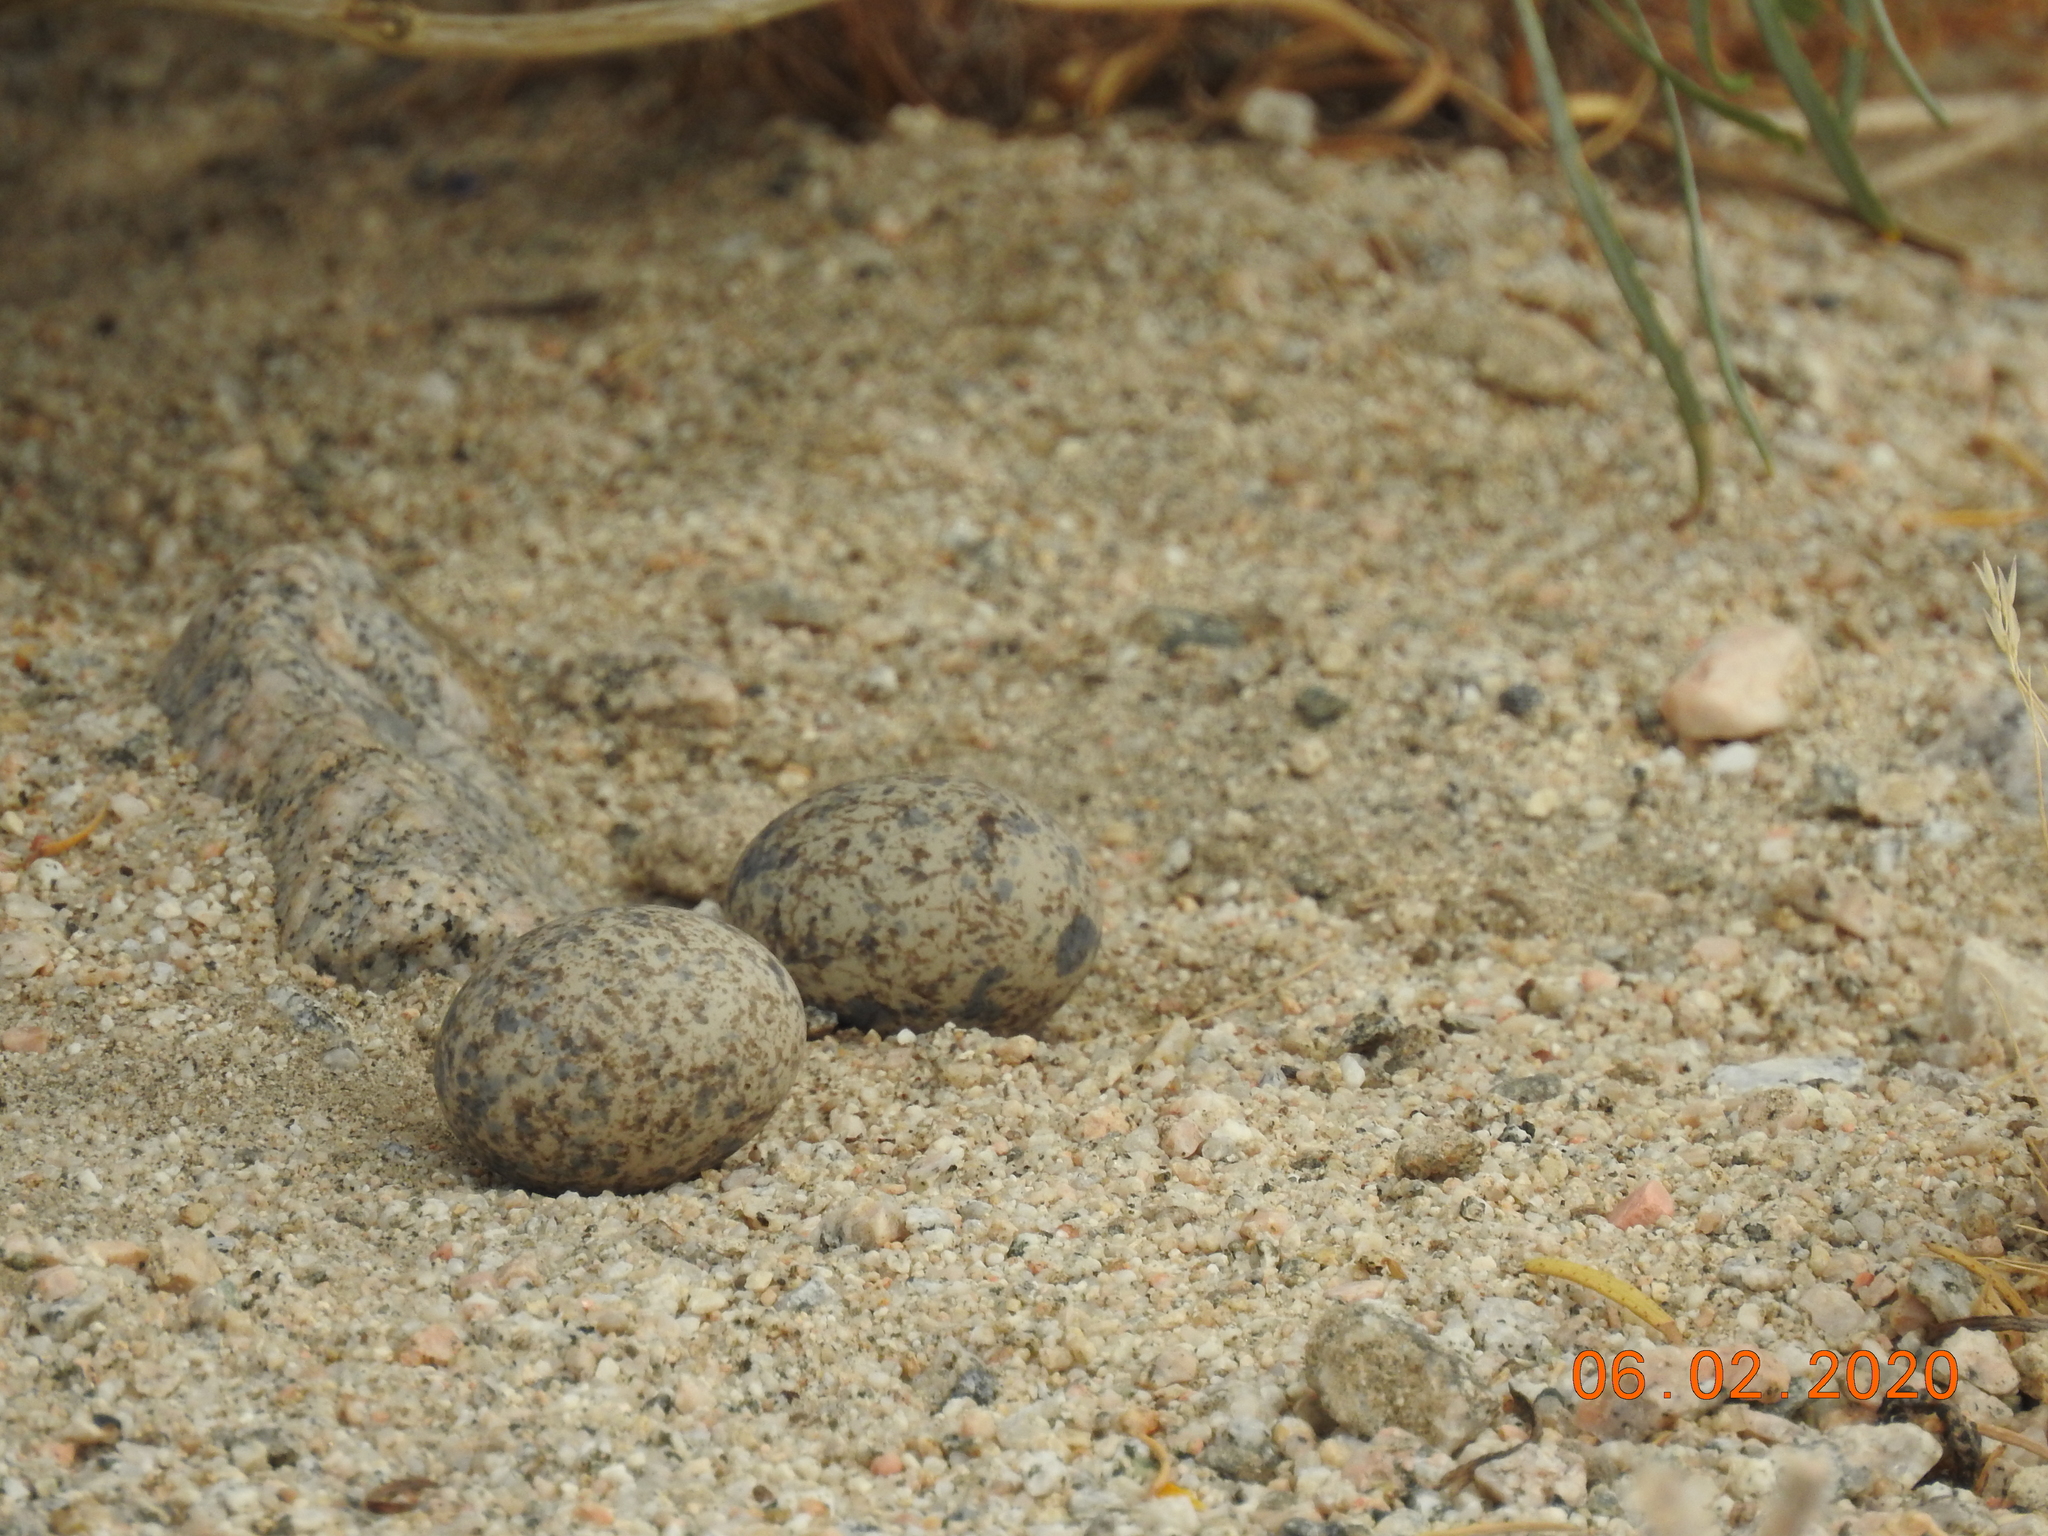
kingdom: Animalia
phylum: Chordata
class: Aves
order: Caprimulgiformes
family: Caprimulgidae
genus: Chordeiles
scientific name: Chordeiles acutipennis
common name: Lesser nighthawk
